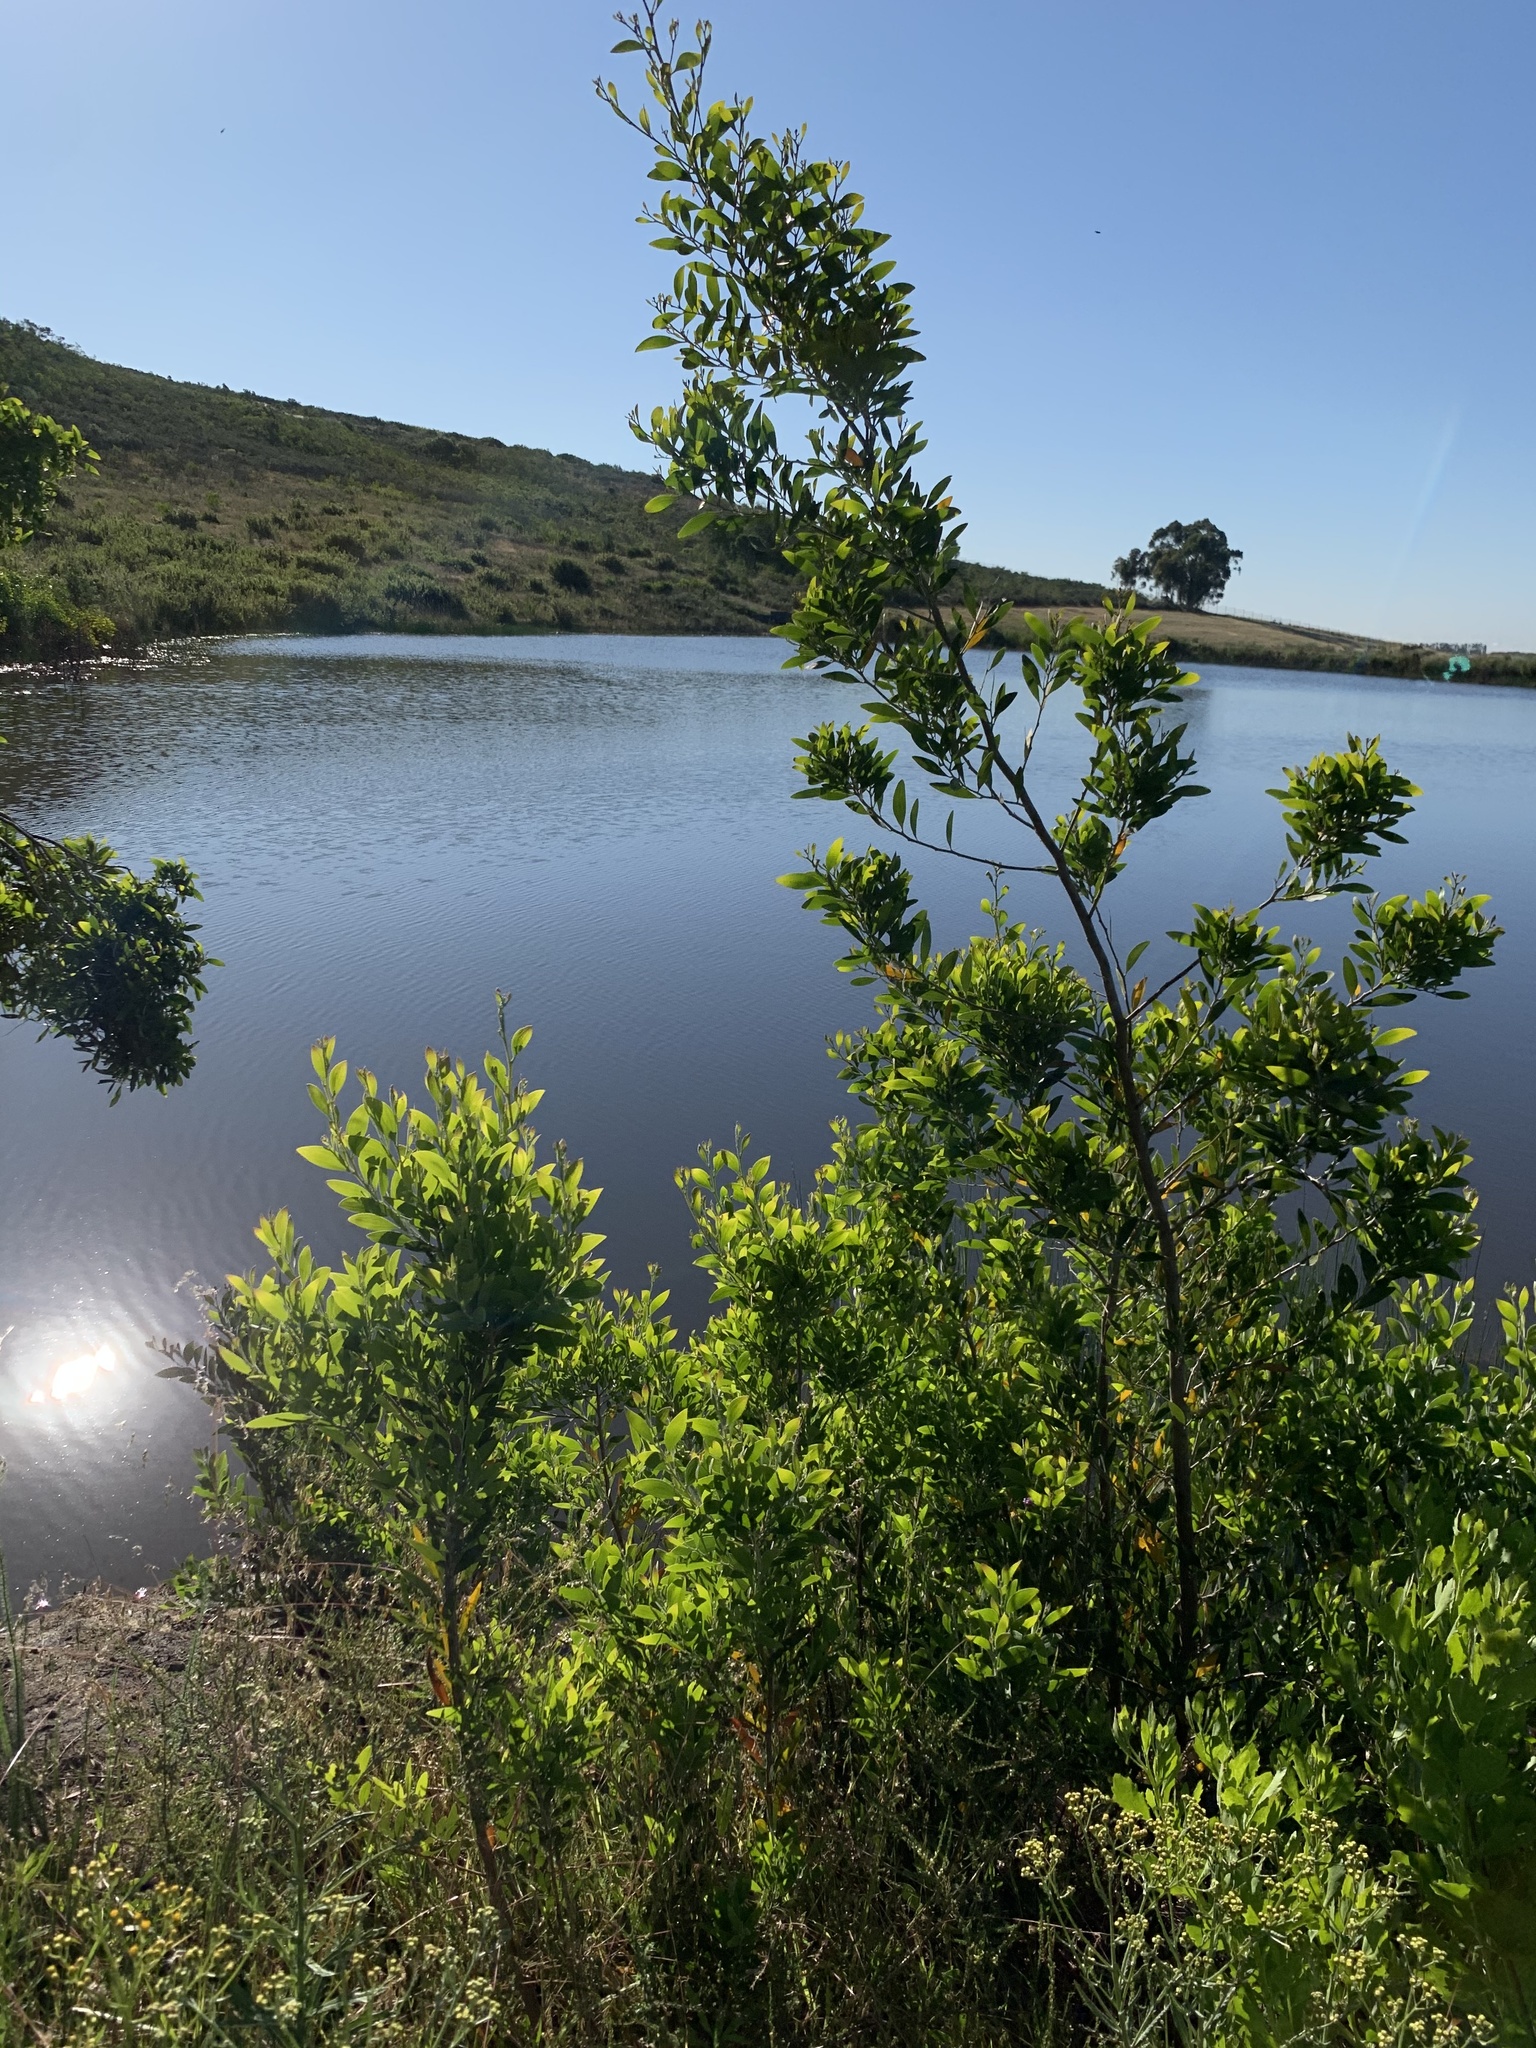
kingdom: Plantae
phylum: Tracheophyta
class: Magnoliopsida
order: Fabales
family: Fabaceae
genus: Acacia
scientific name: Acacia melanoxylon
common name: Blackwood
